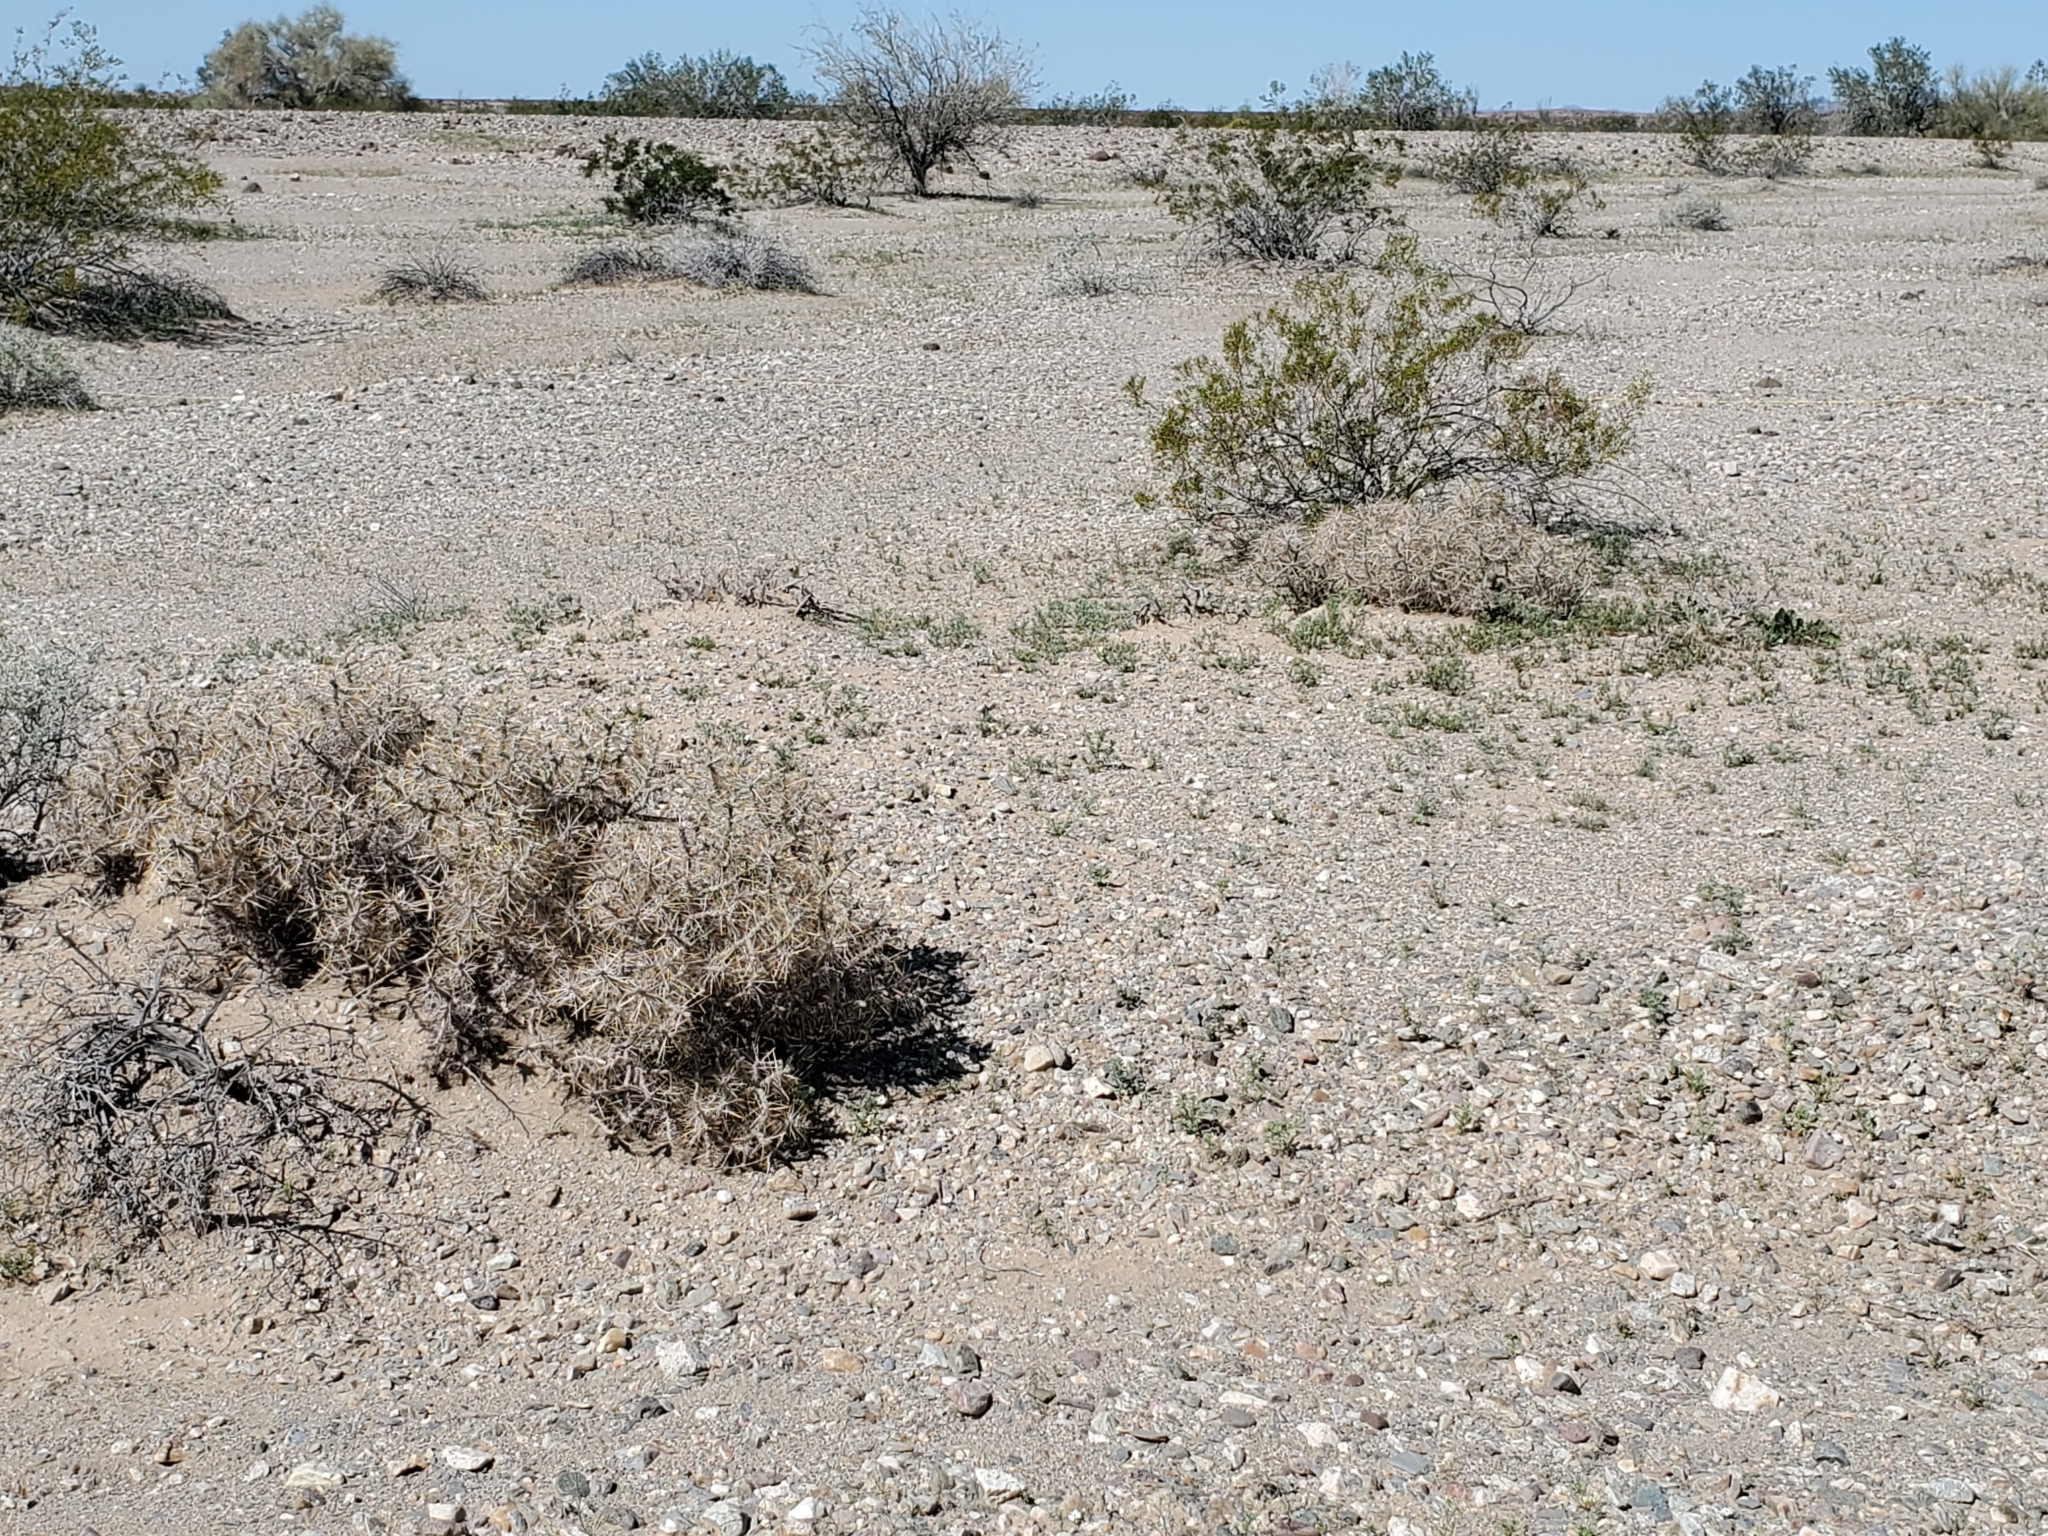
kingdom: Plantae
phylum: Tracheophyta
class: Magnoliopsida
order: Caryophyllales
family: Cactaceae
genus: Cylindropuntia
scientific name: Cylindropuntia ramosissima
